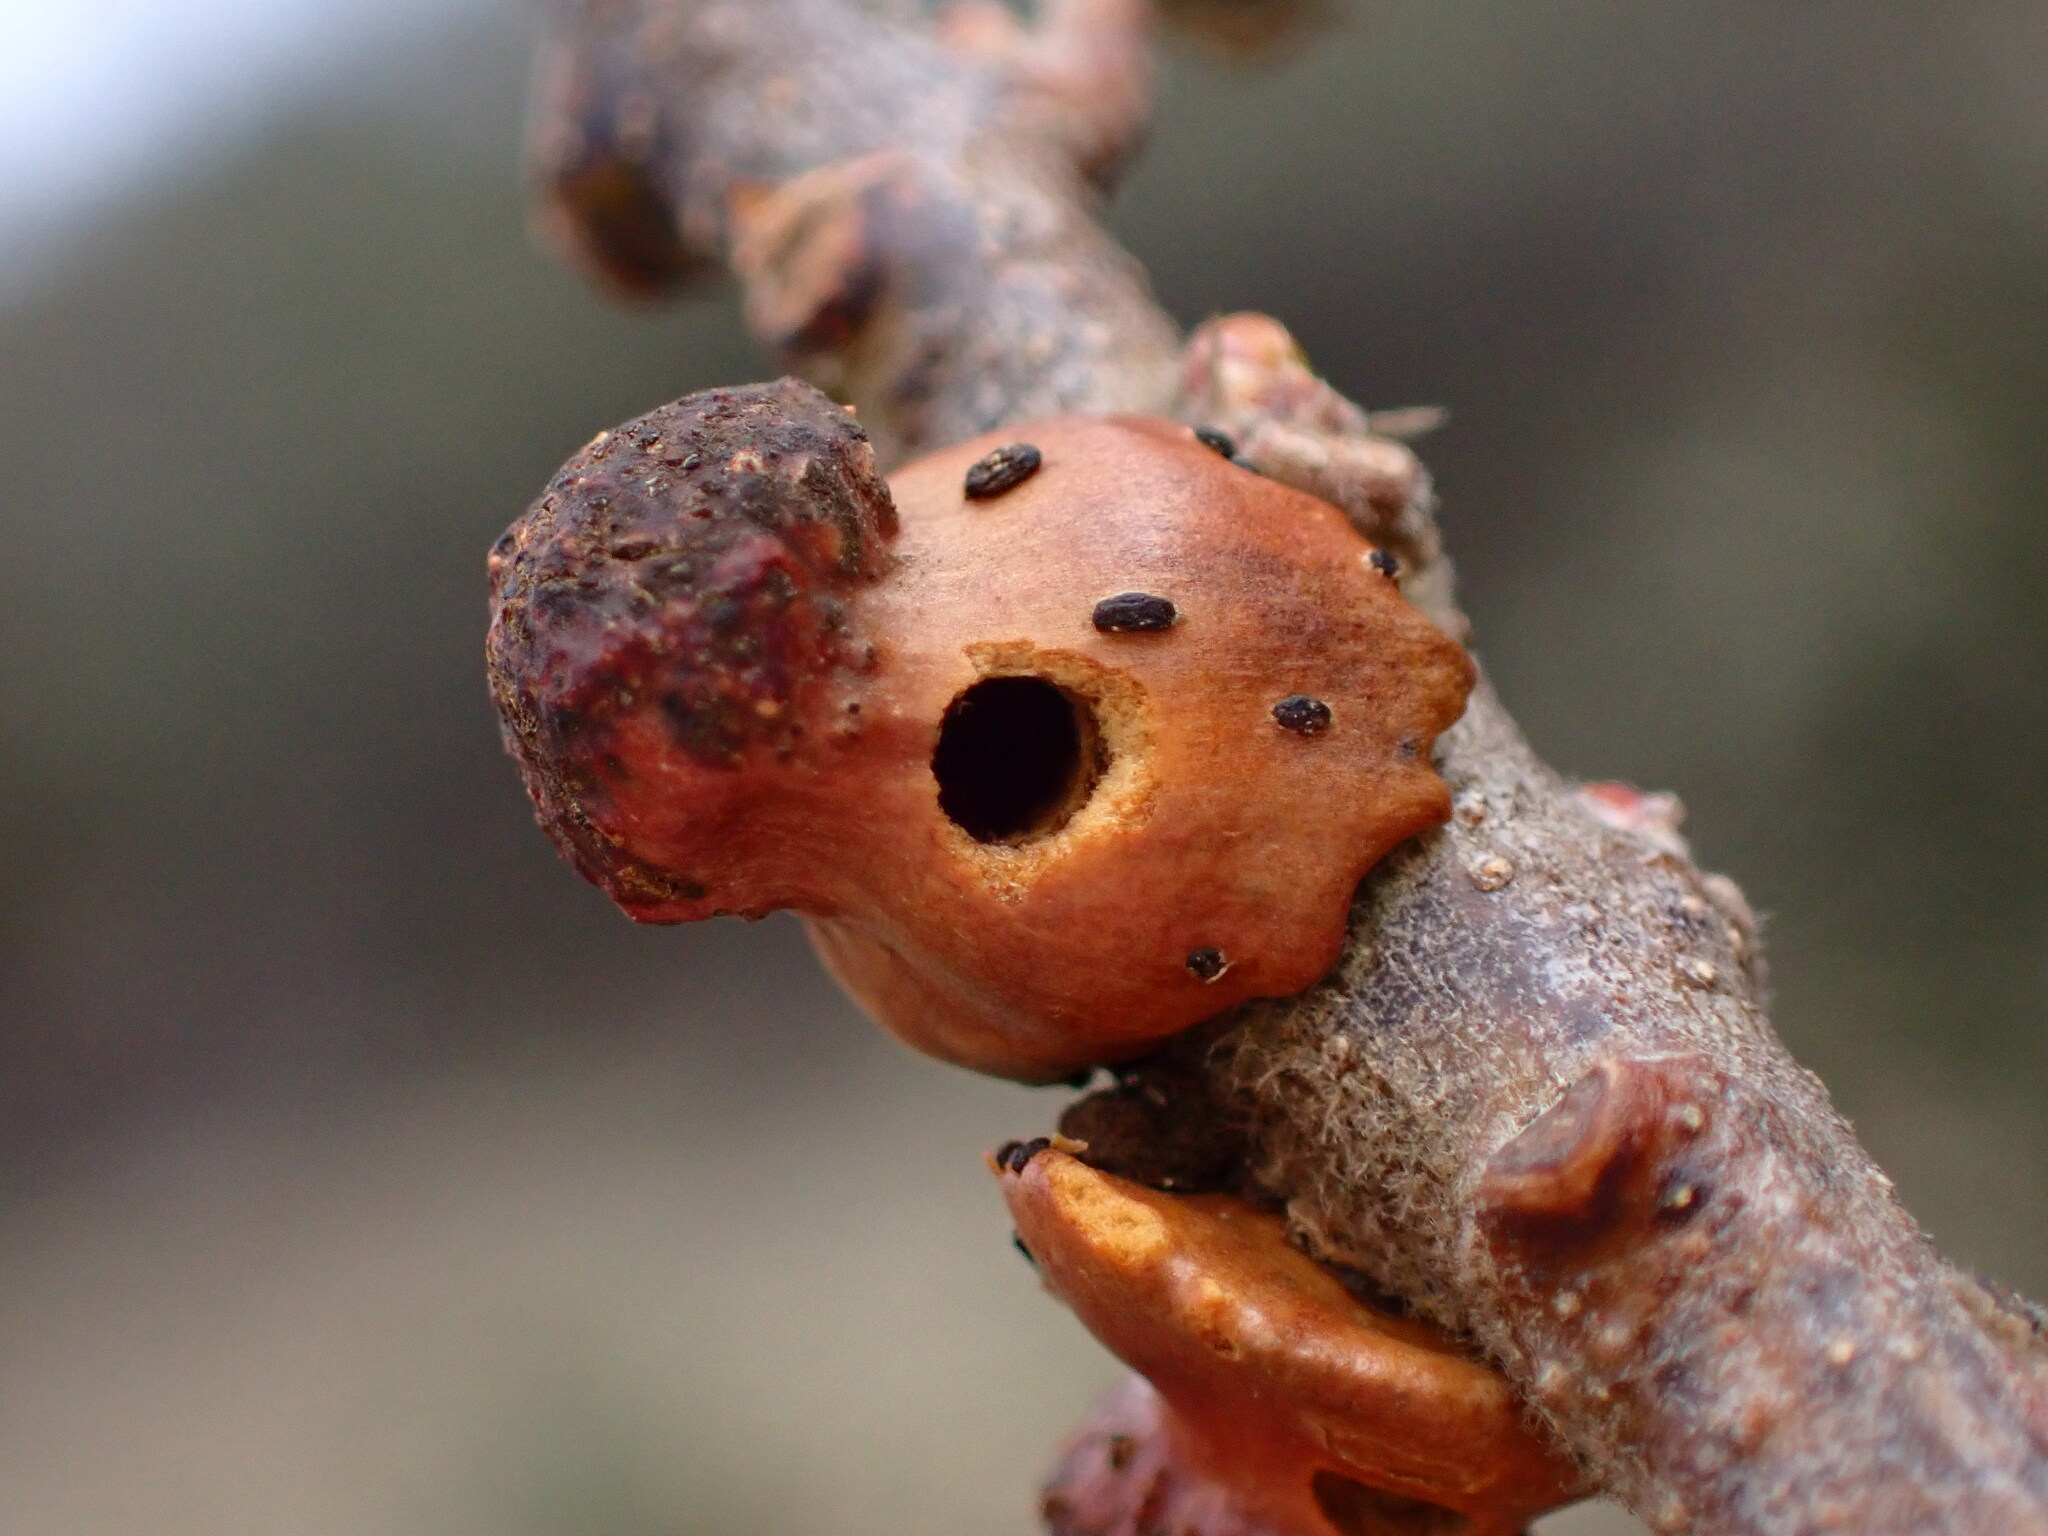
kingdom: Animalia
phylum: Arthropoda
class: Insecta
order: Hymenoptera
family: Cynipidae
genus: Disholcaspis
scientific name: Disholcaspis prehensa
